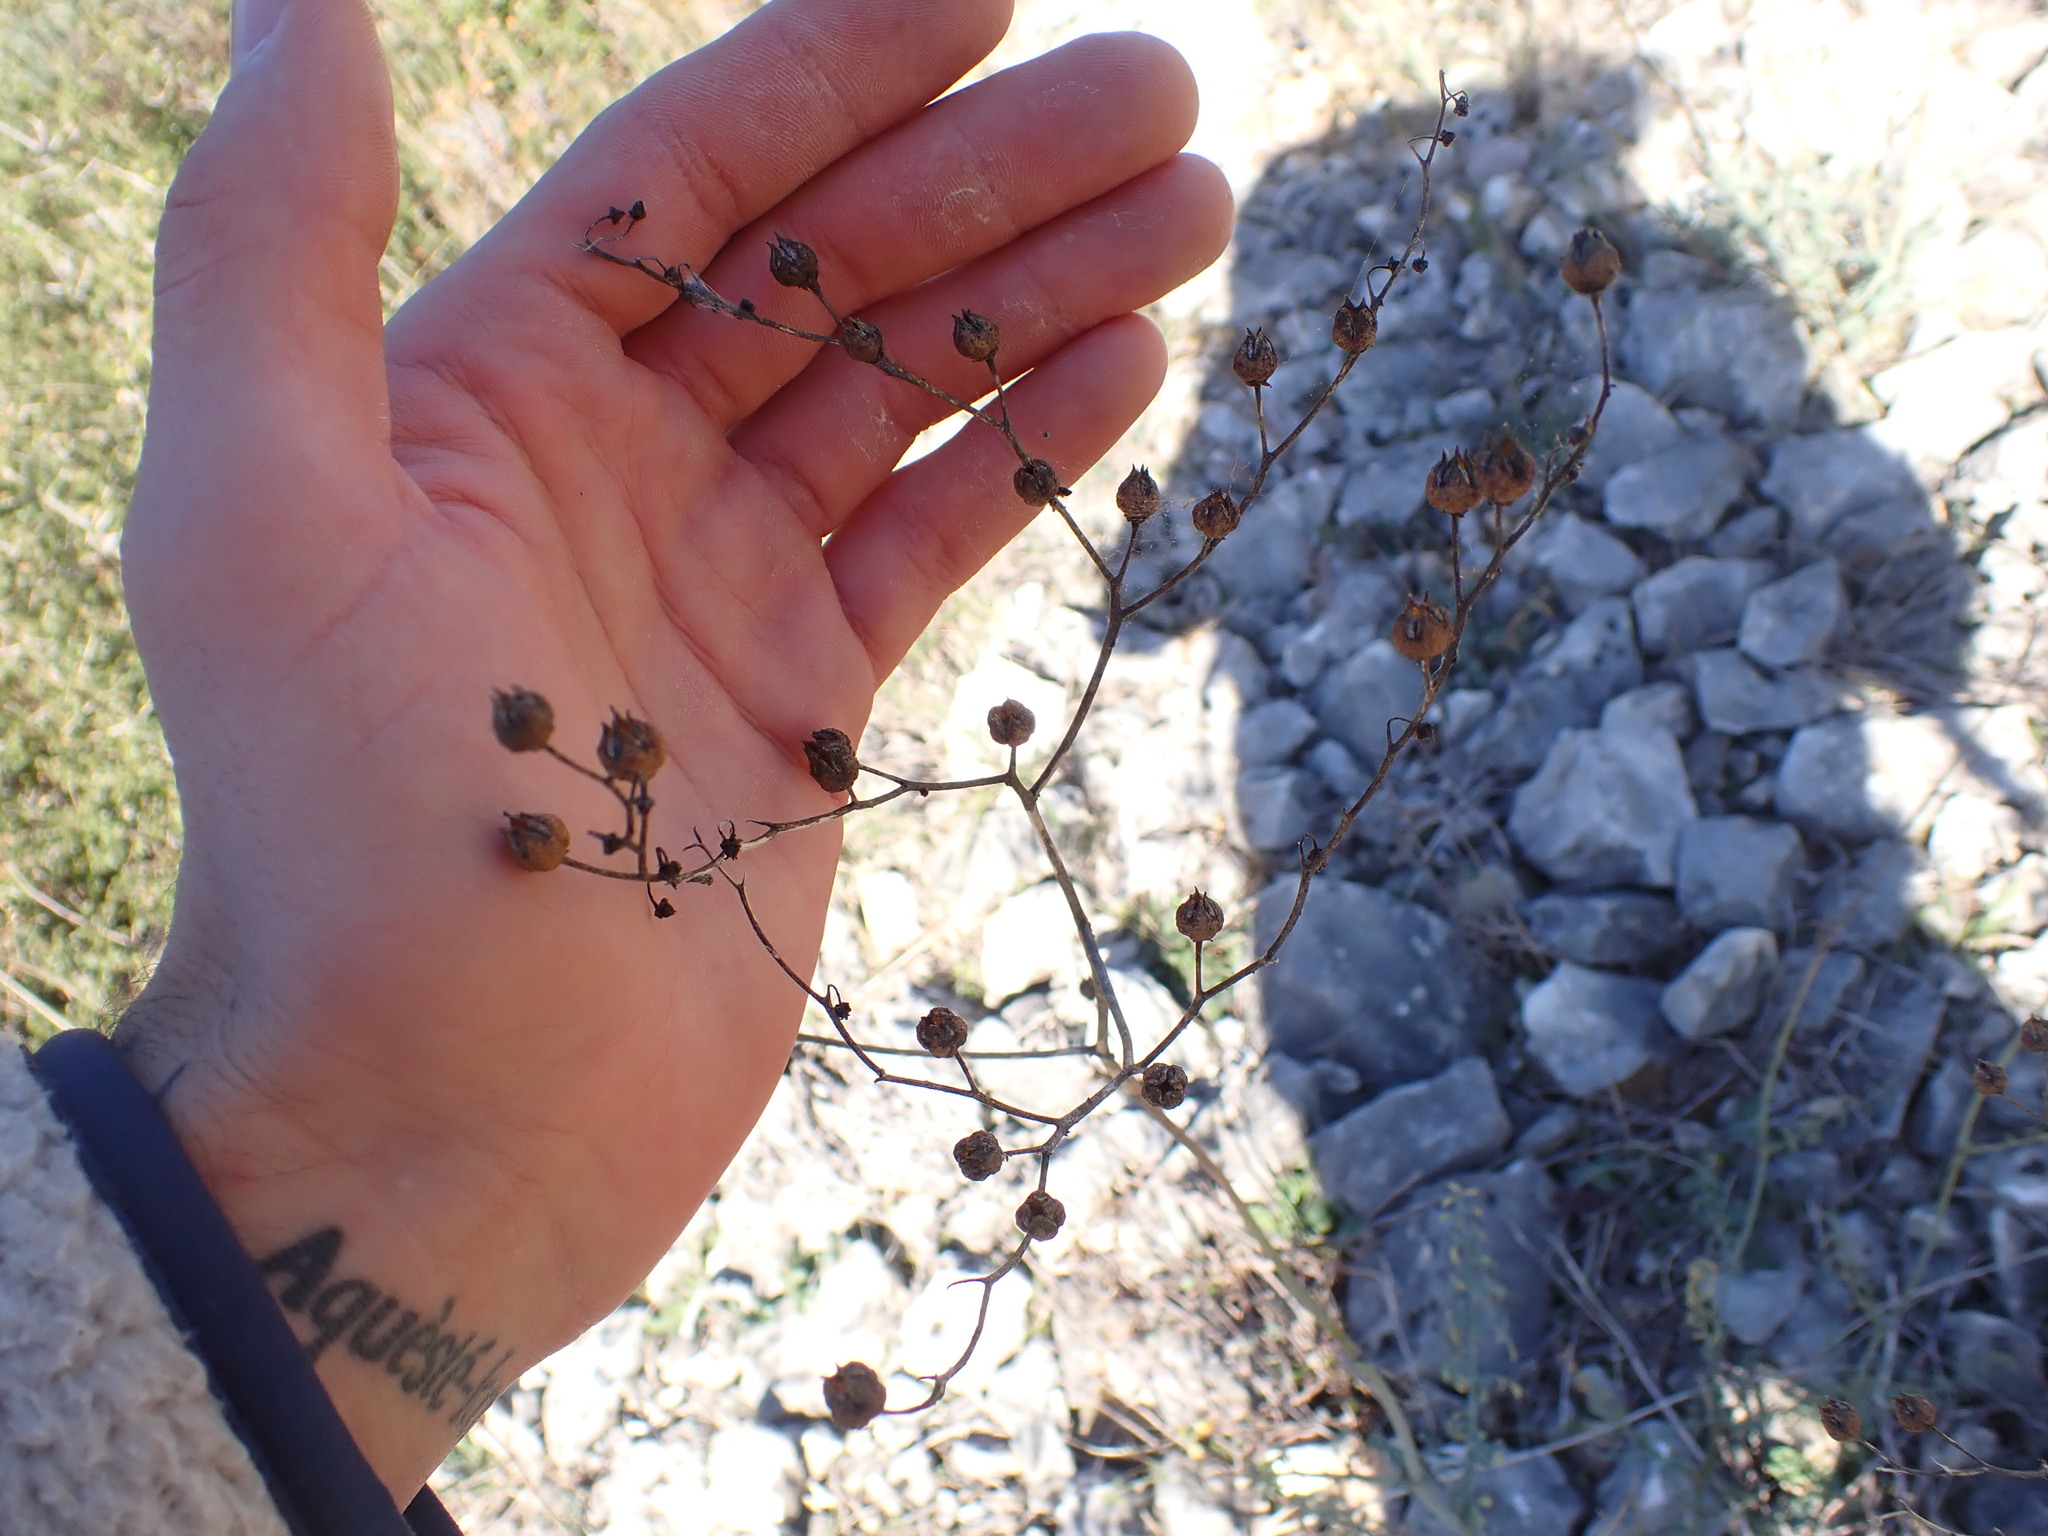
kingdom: Plantae
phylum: Tracheophyta
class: Magnoliopsida
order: Sapindales
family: Rutaceae
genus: Ruta
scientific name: Ruta angustifolia
